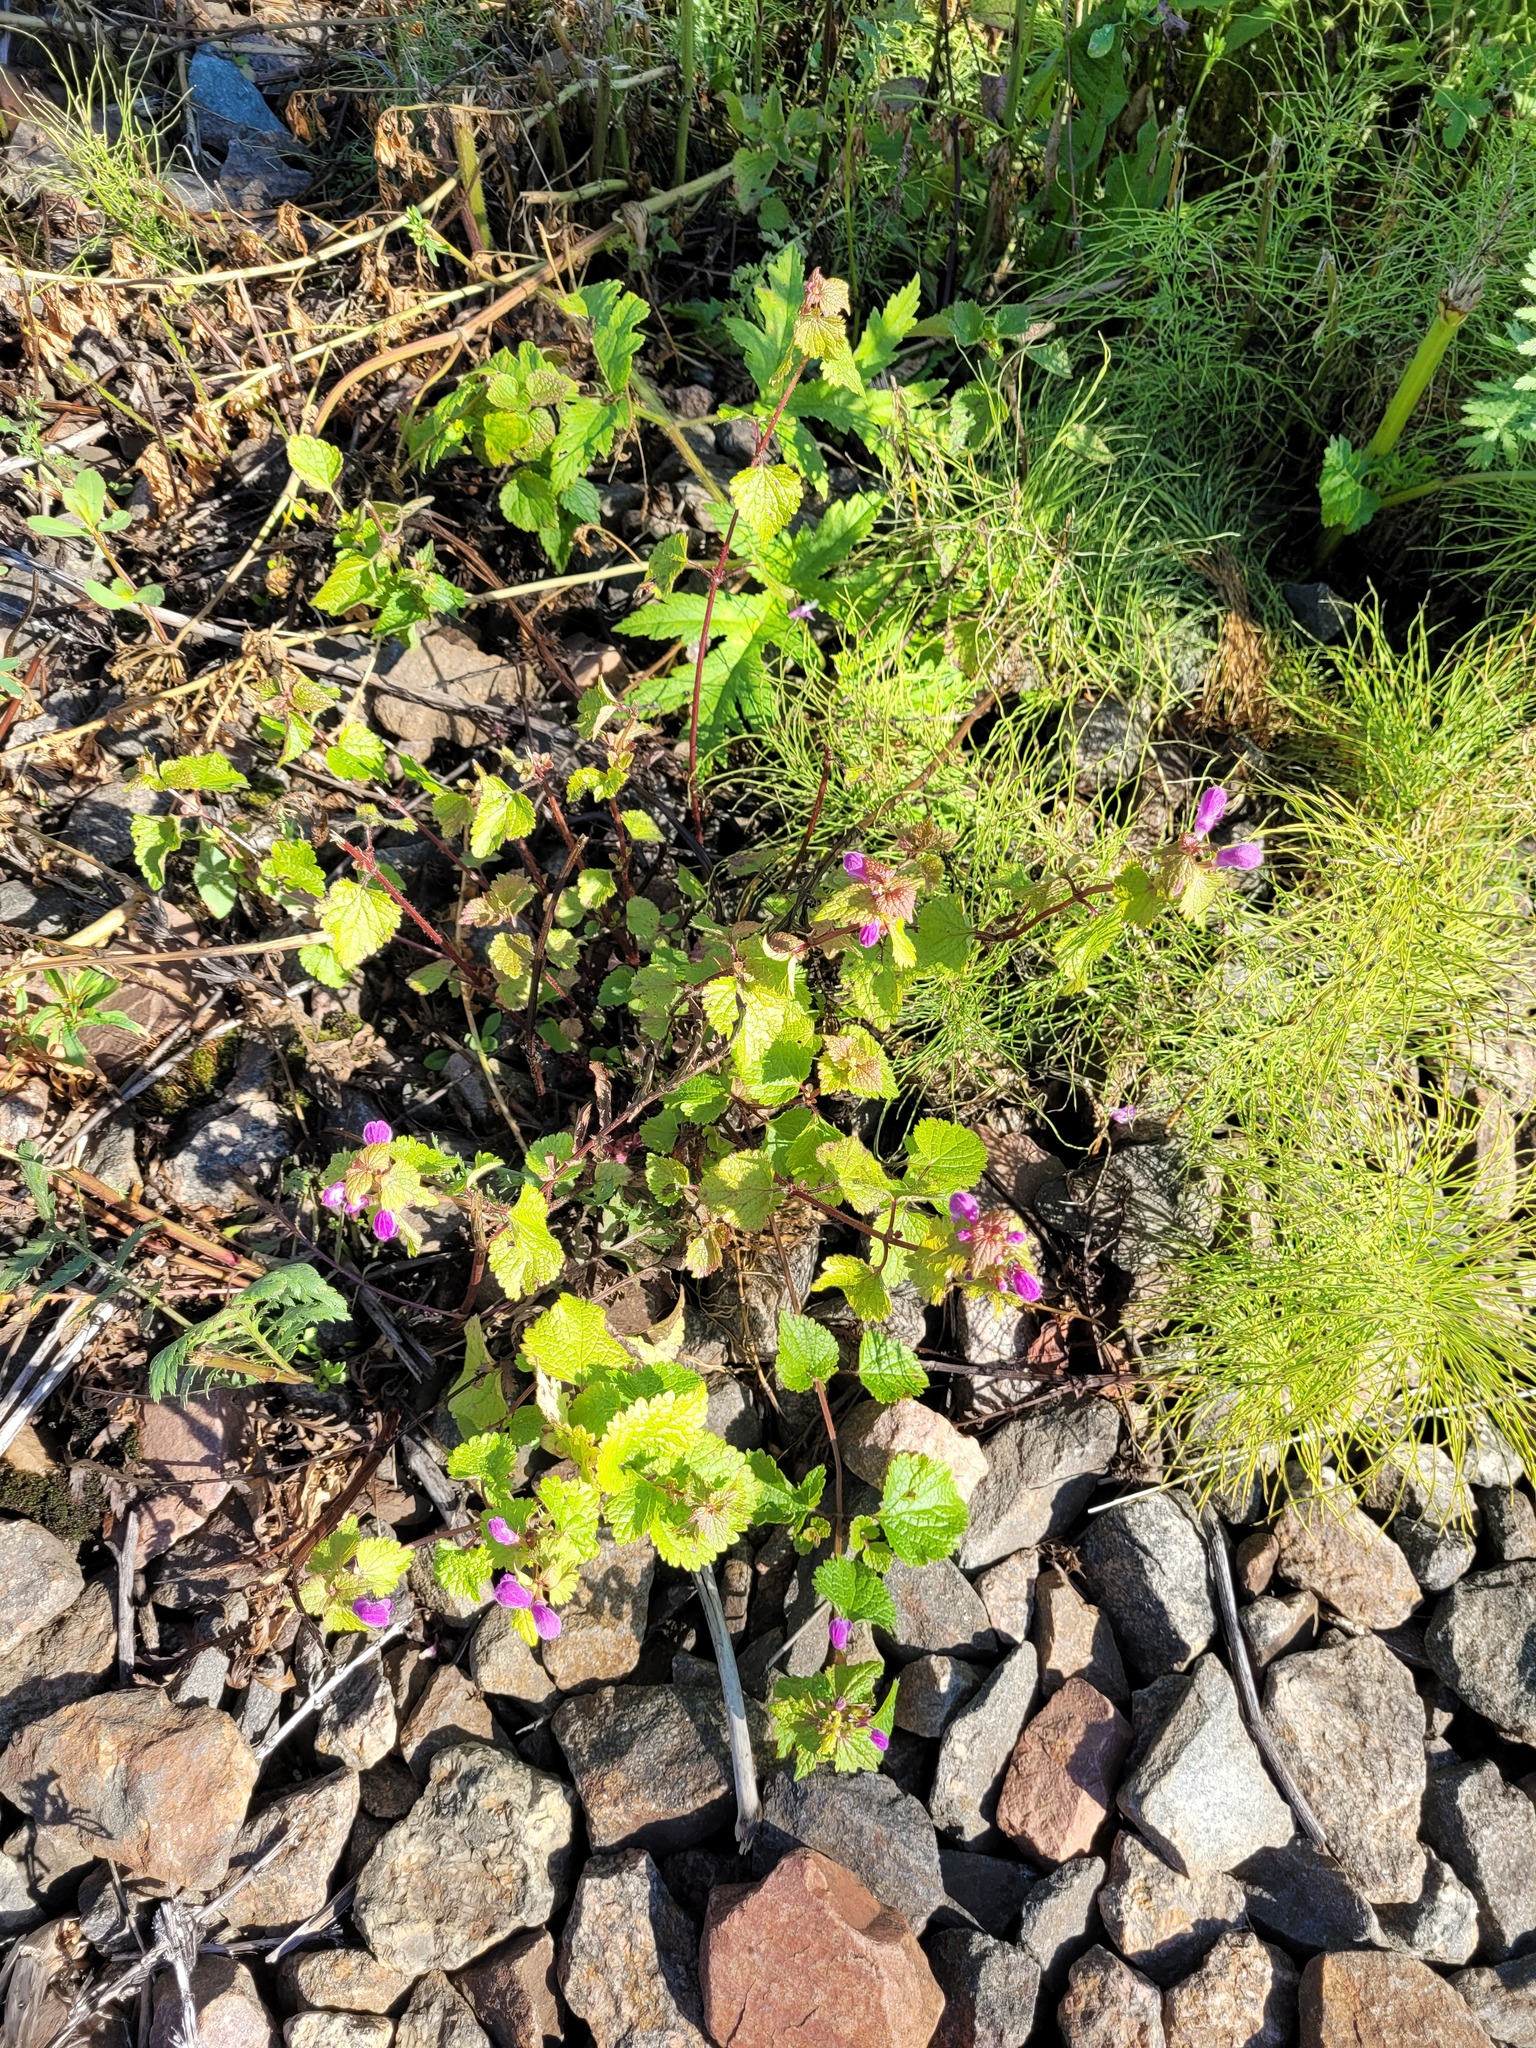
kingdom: Plantae
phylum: Tracheophyta
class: Magnoliopsida
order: Lamiales
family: Lamiaceae
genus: Lamium
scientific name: Lamium maculatum
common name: Spotted dead-nettle
